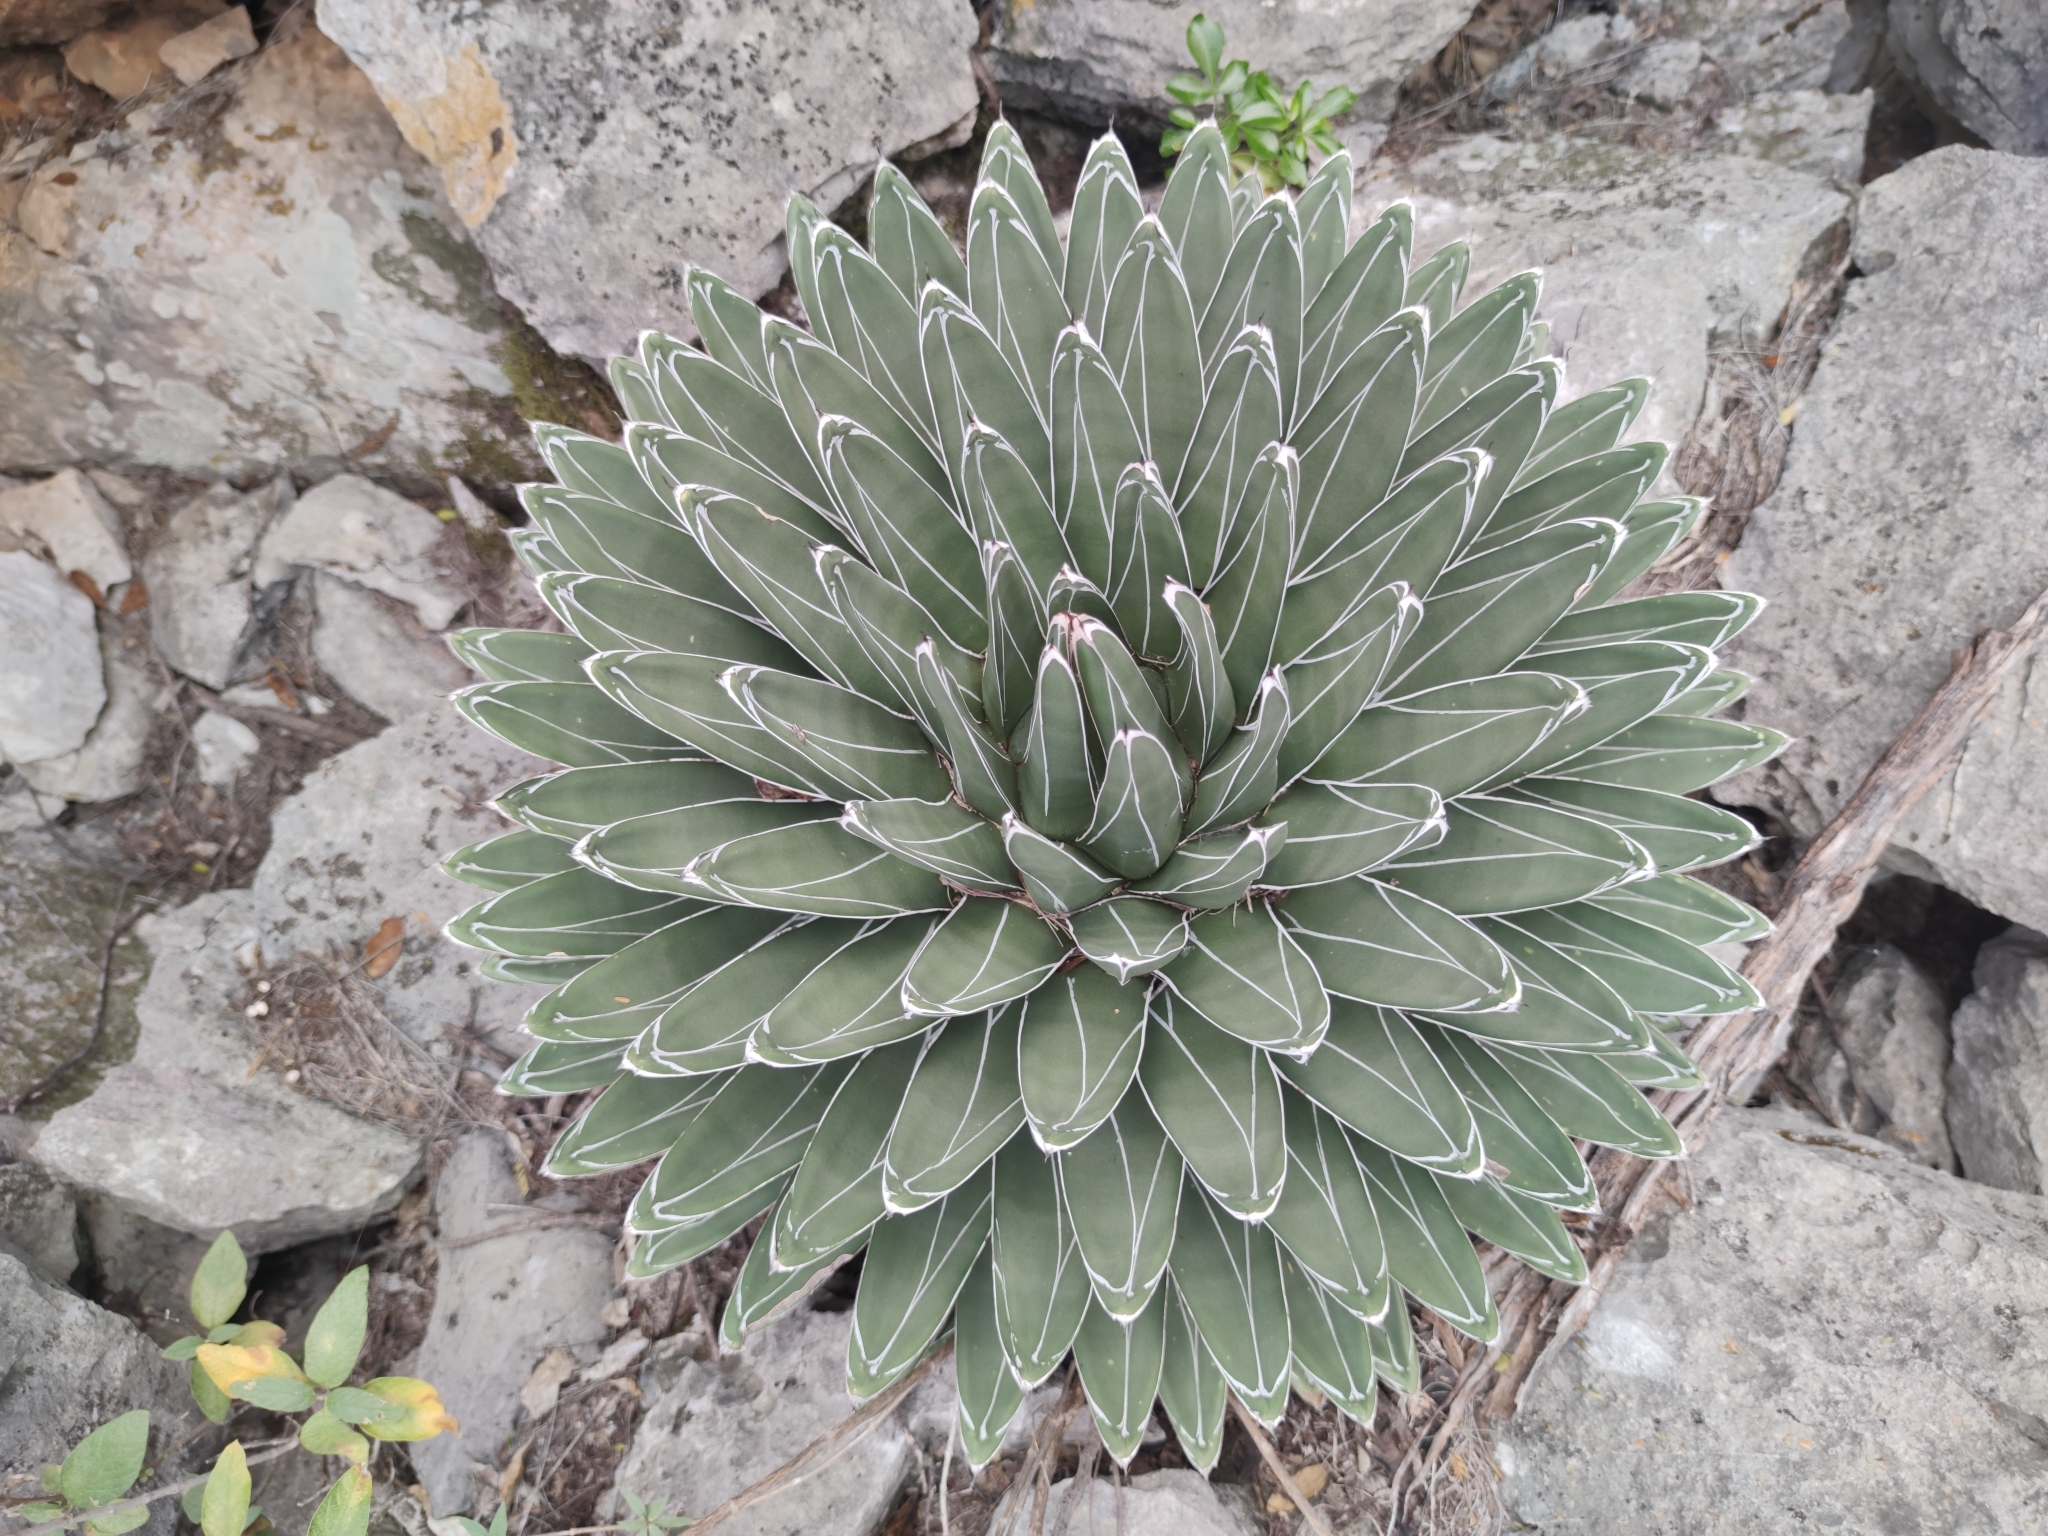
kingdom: Plantae
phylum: Tracheophyta
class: Liliopsida
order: Asparagales
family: Asparagaceae
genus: Agave
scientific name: Agave victoriae-reginae
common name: Royal agave
